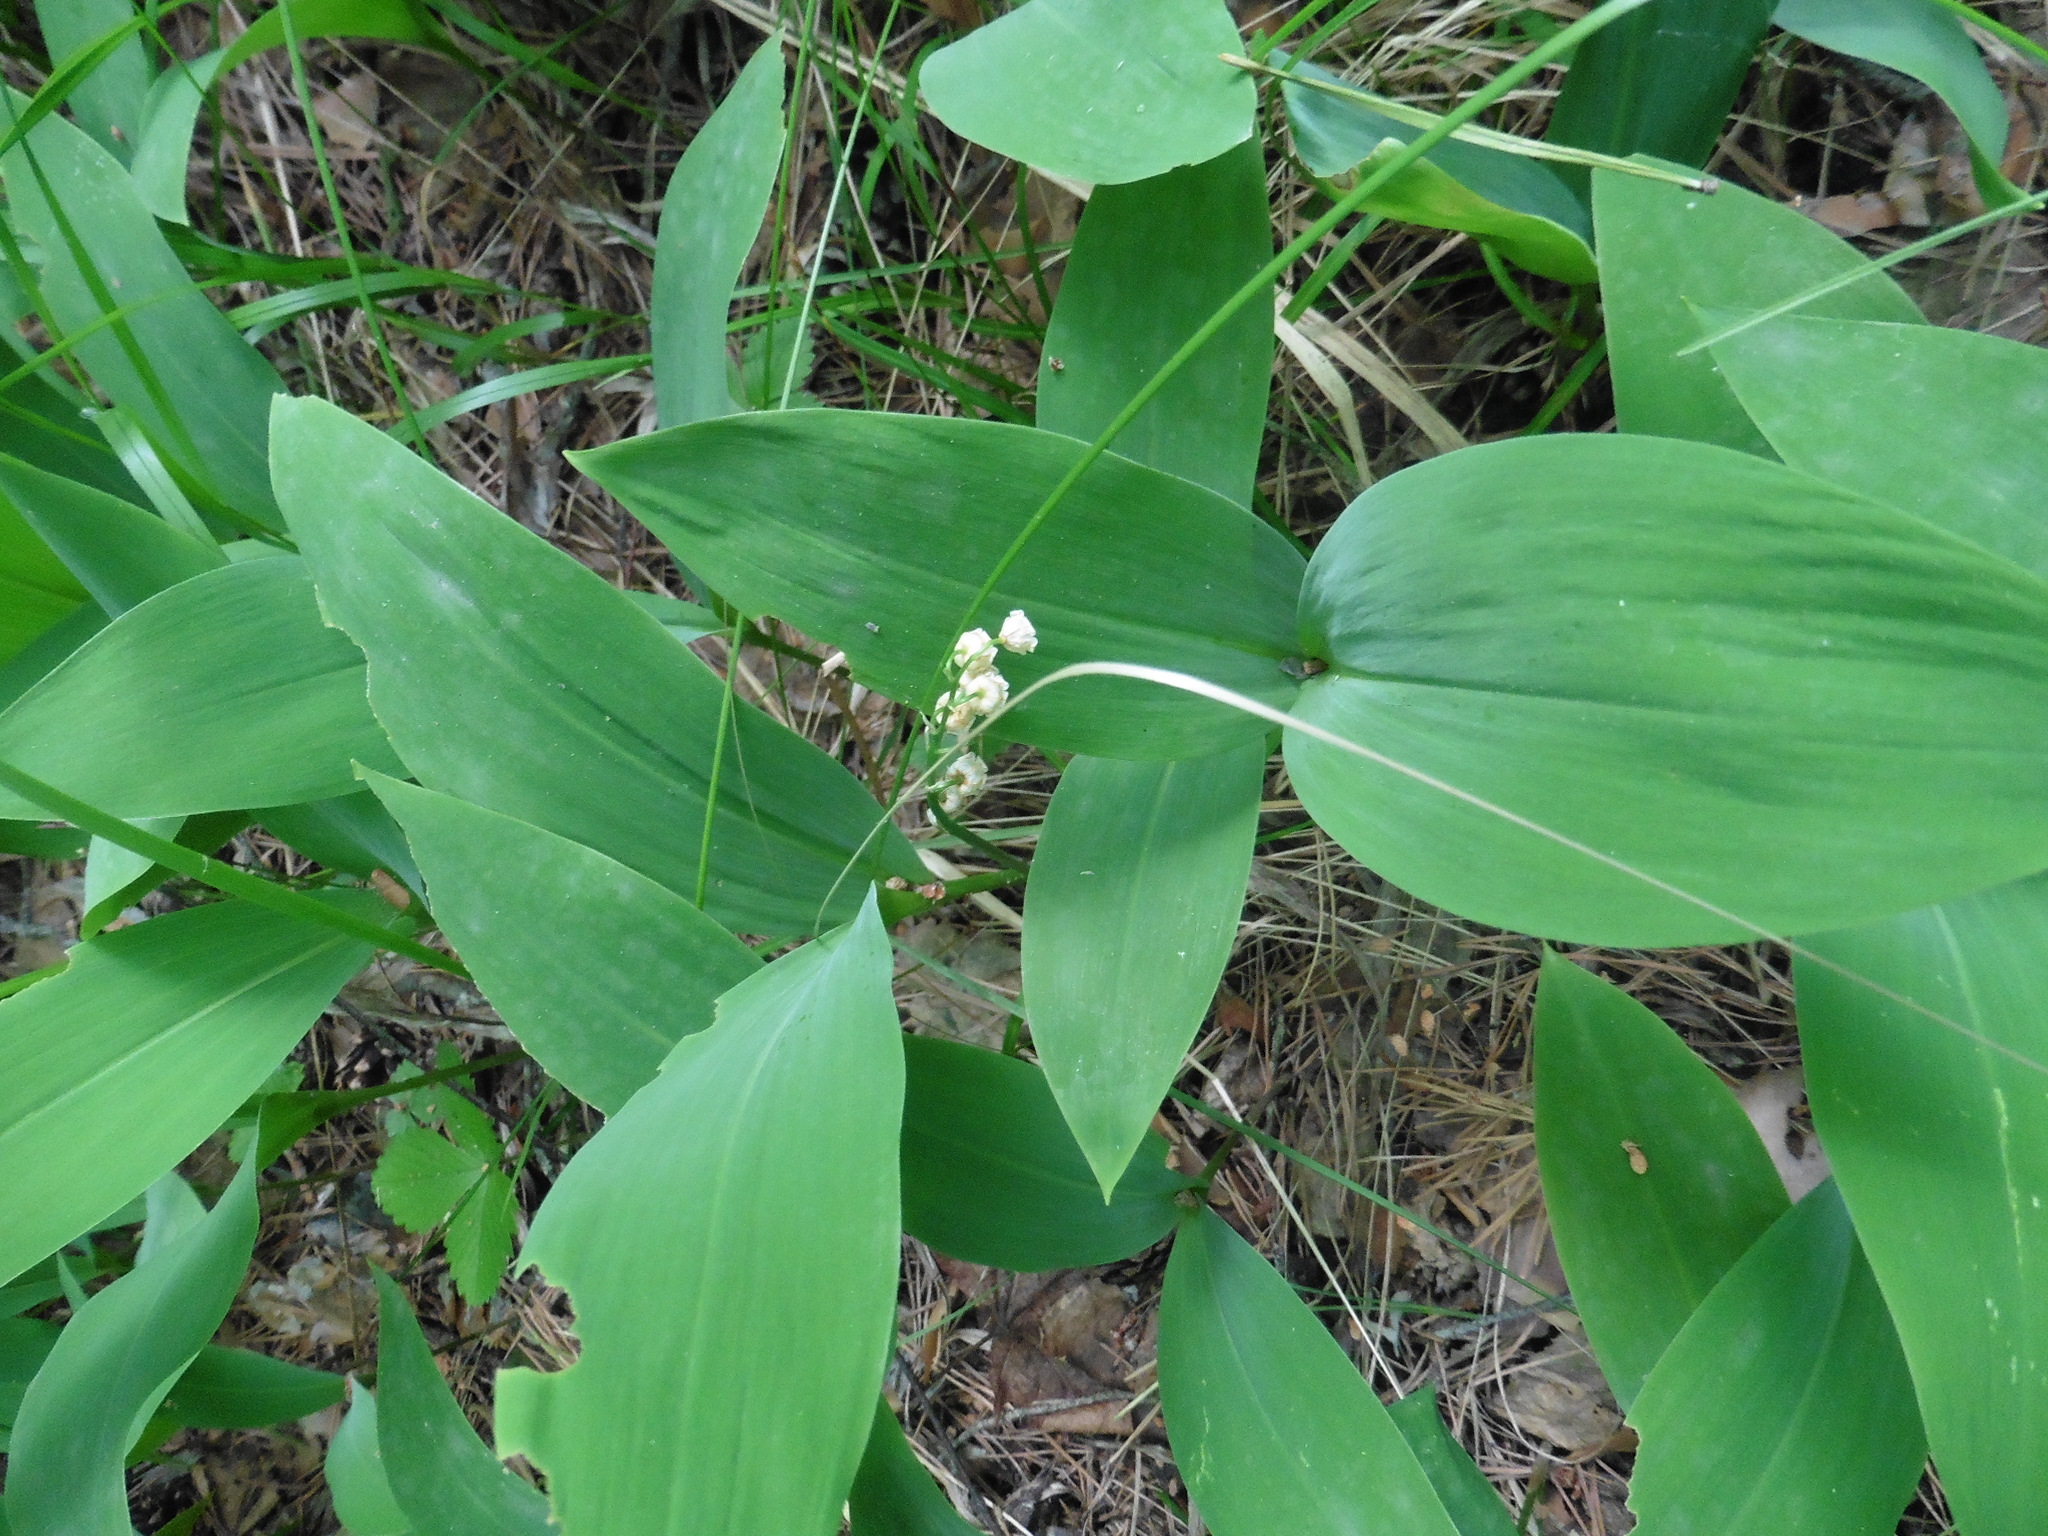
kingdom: Plantae
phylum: Tracheophyta
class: Liliopsida
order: Asparagales
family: Asparagaceae
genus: Convallaria
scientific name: Convallaria majalis
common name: Lily-of-the-valley
